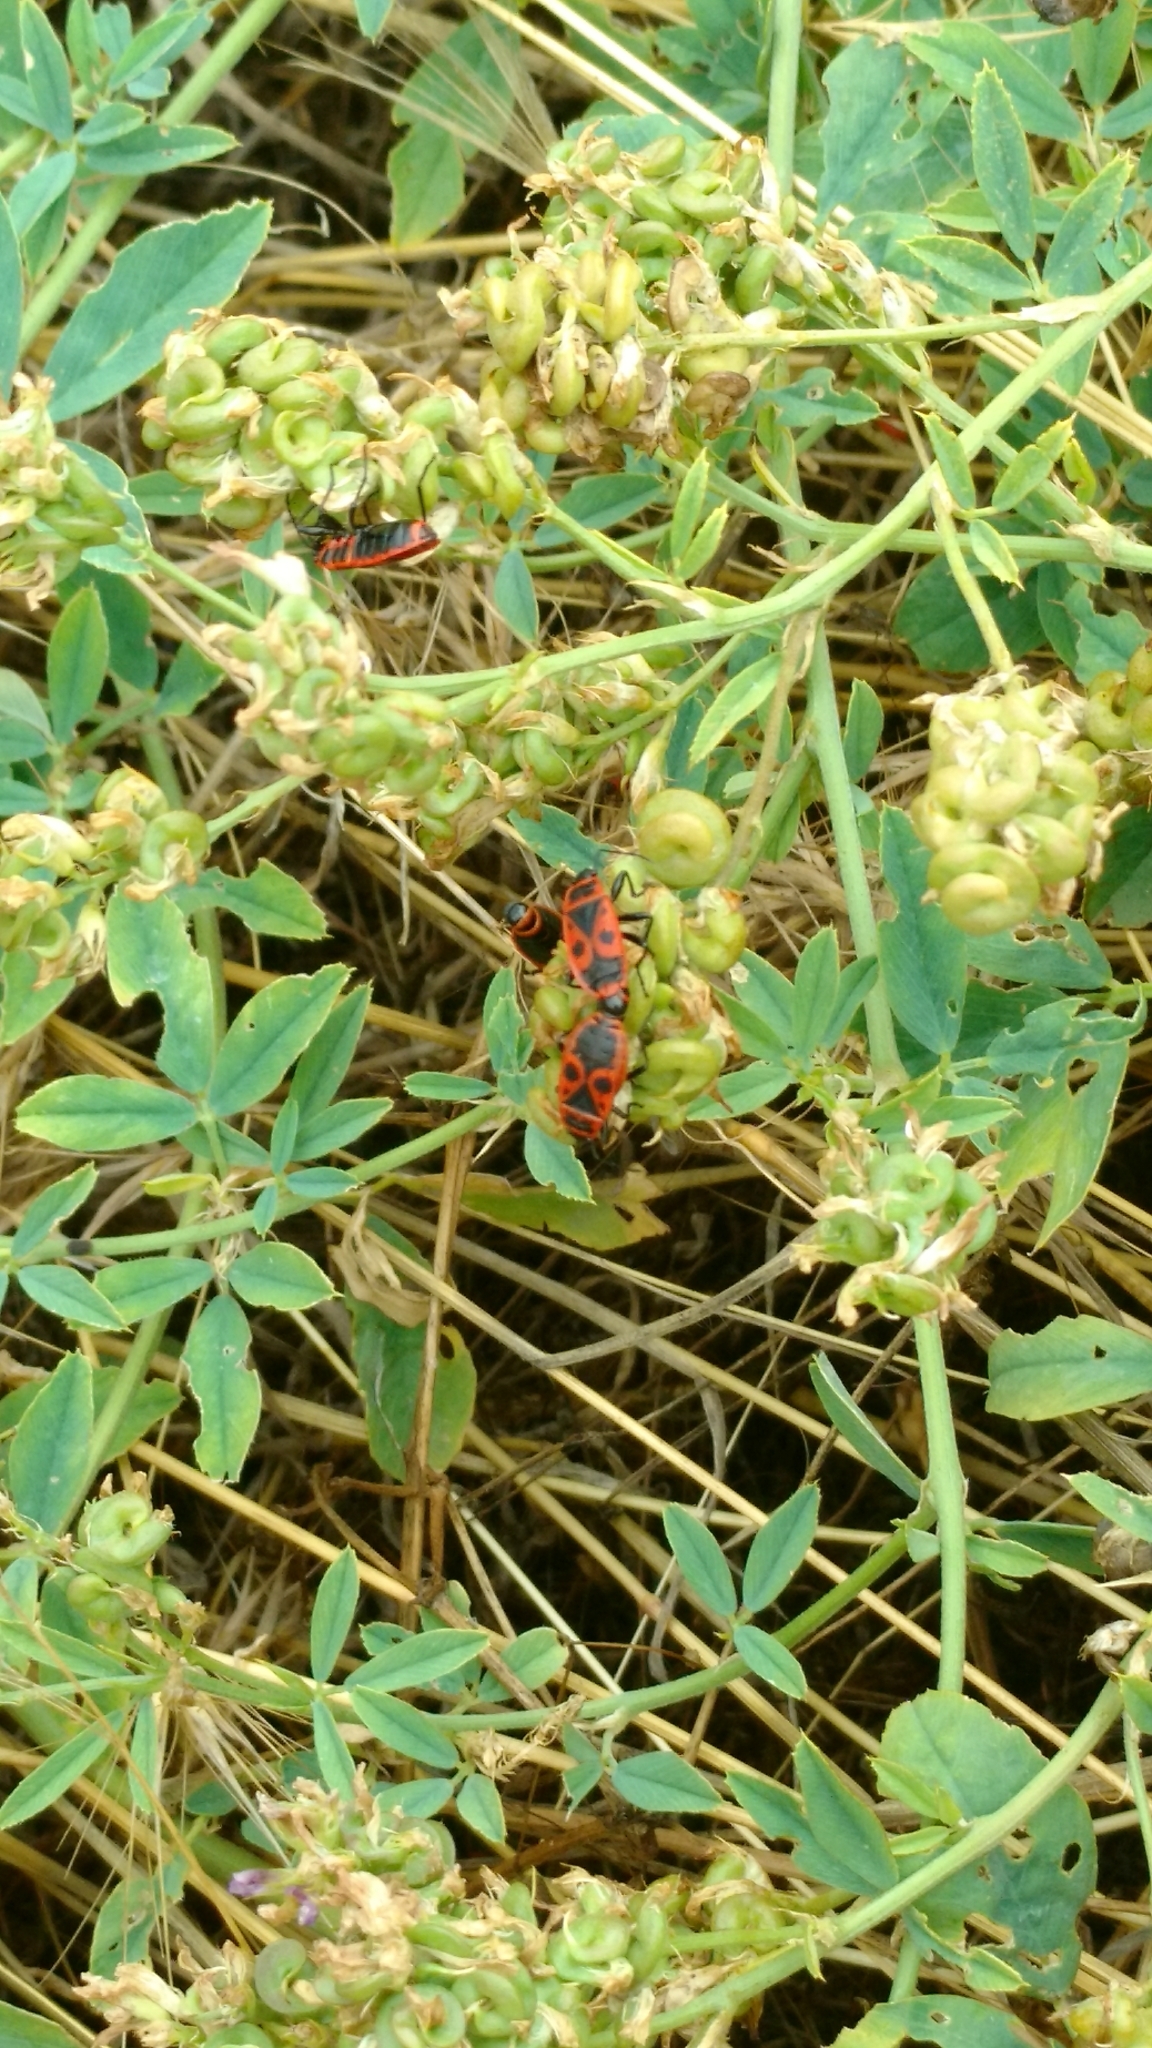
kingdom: Animalia
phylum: Arthropoda
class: Insecta
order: Hemiptera
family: Pyrrhocoridae
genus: Pyrrhocoris
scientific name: Pyrrhocoris apterus
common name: Firebug
